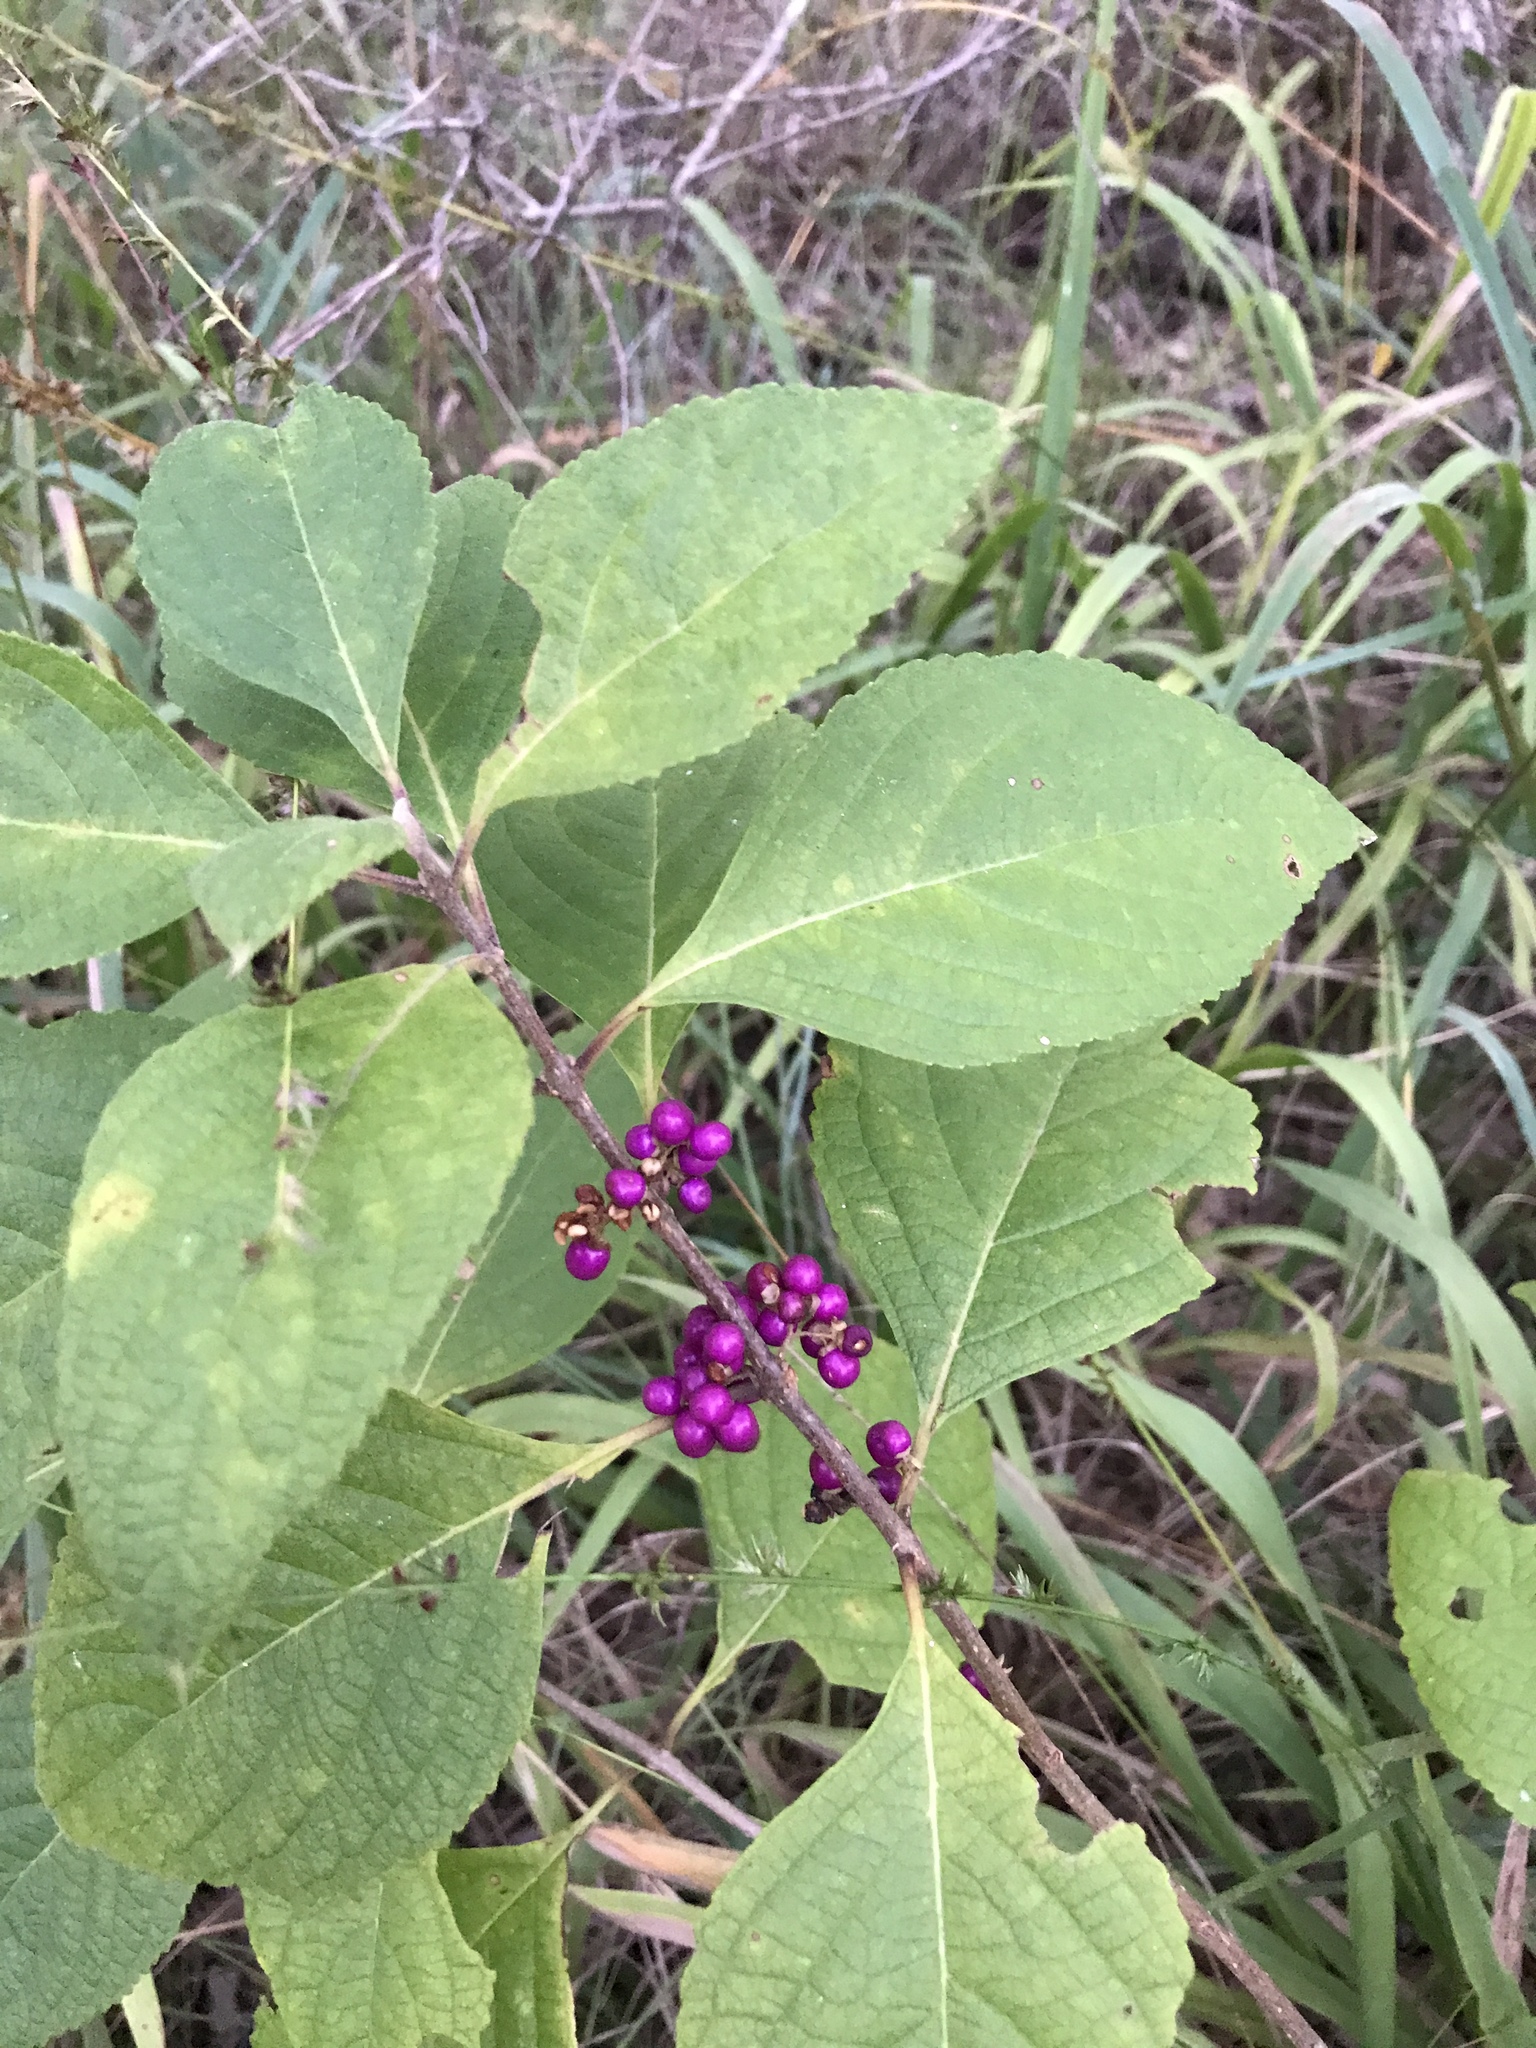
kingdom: Plantae
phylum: Tracheophyta
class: Magnoliopsida
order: Lamiales
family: Lamiaceae
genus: Callicarpa
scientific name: Callicarpa americana
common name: American beautyberry
